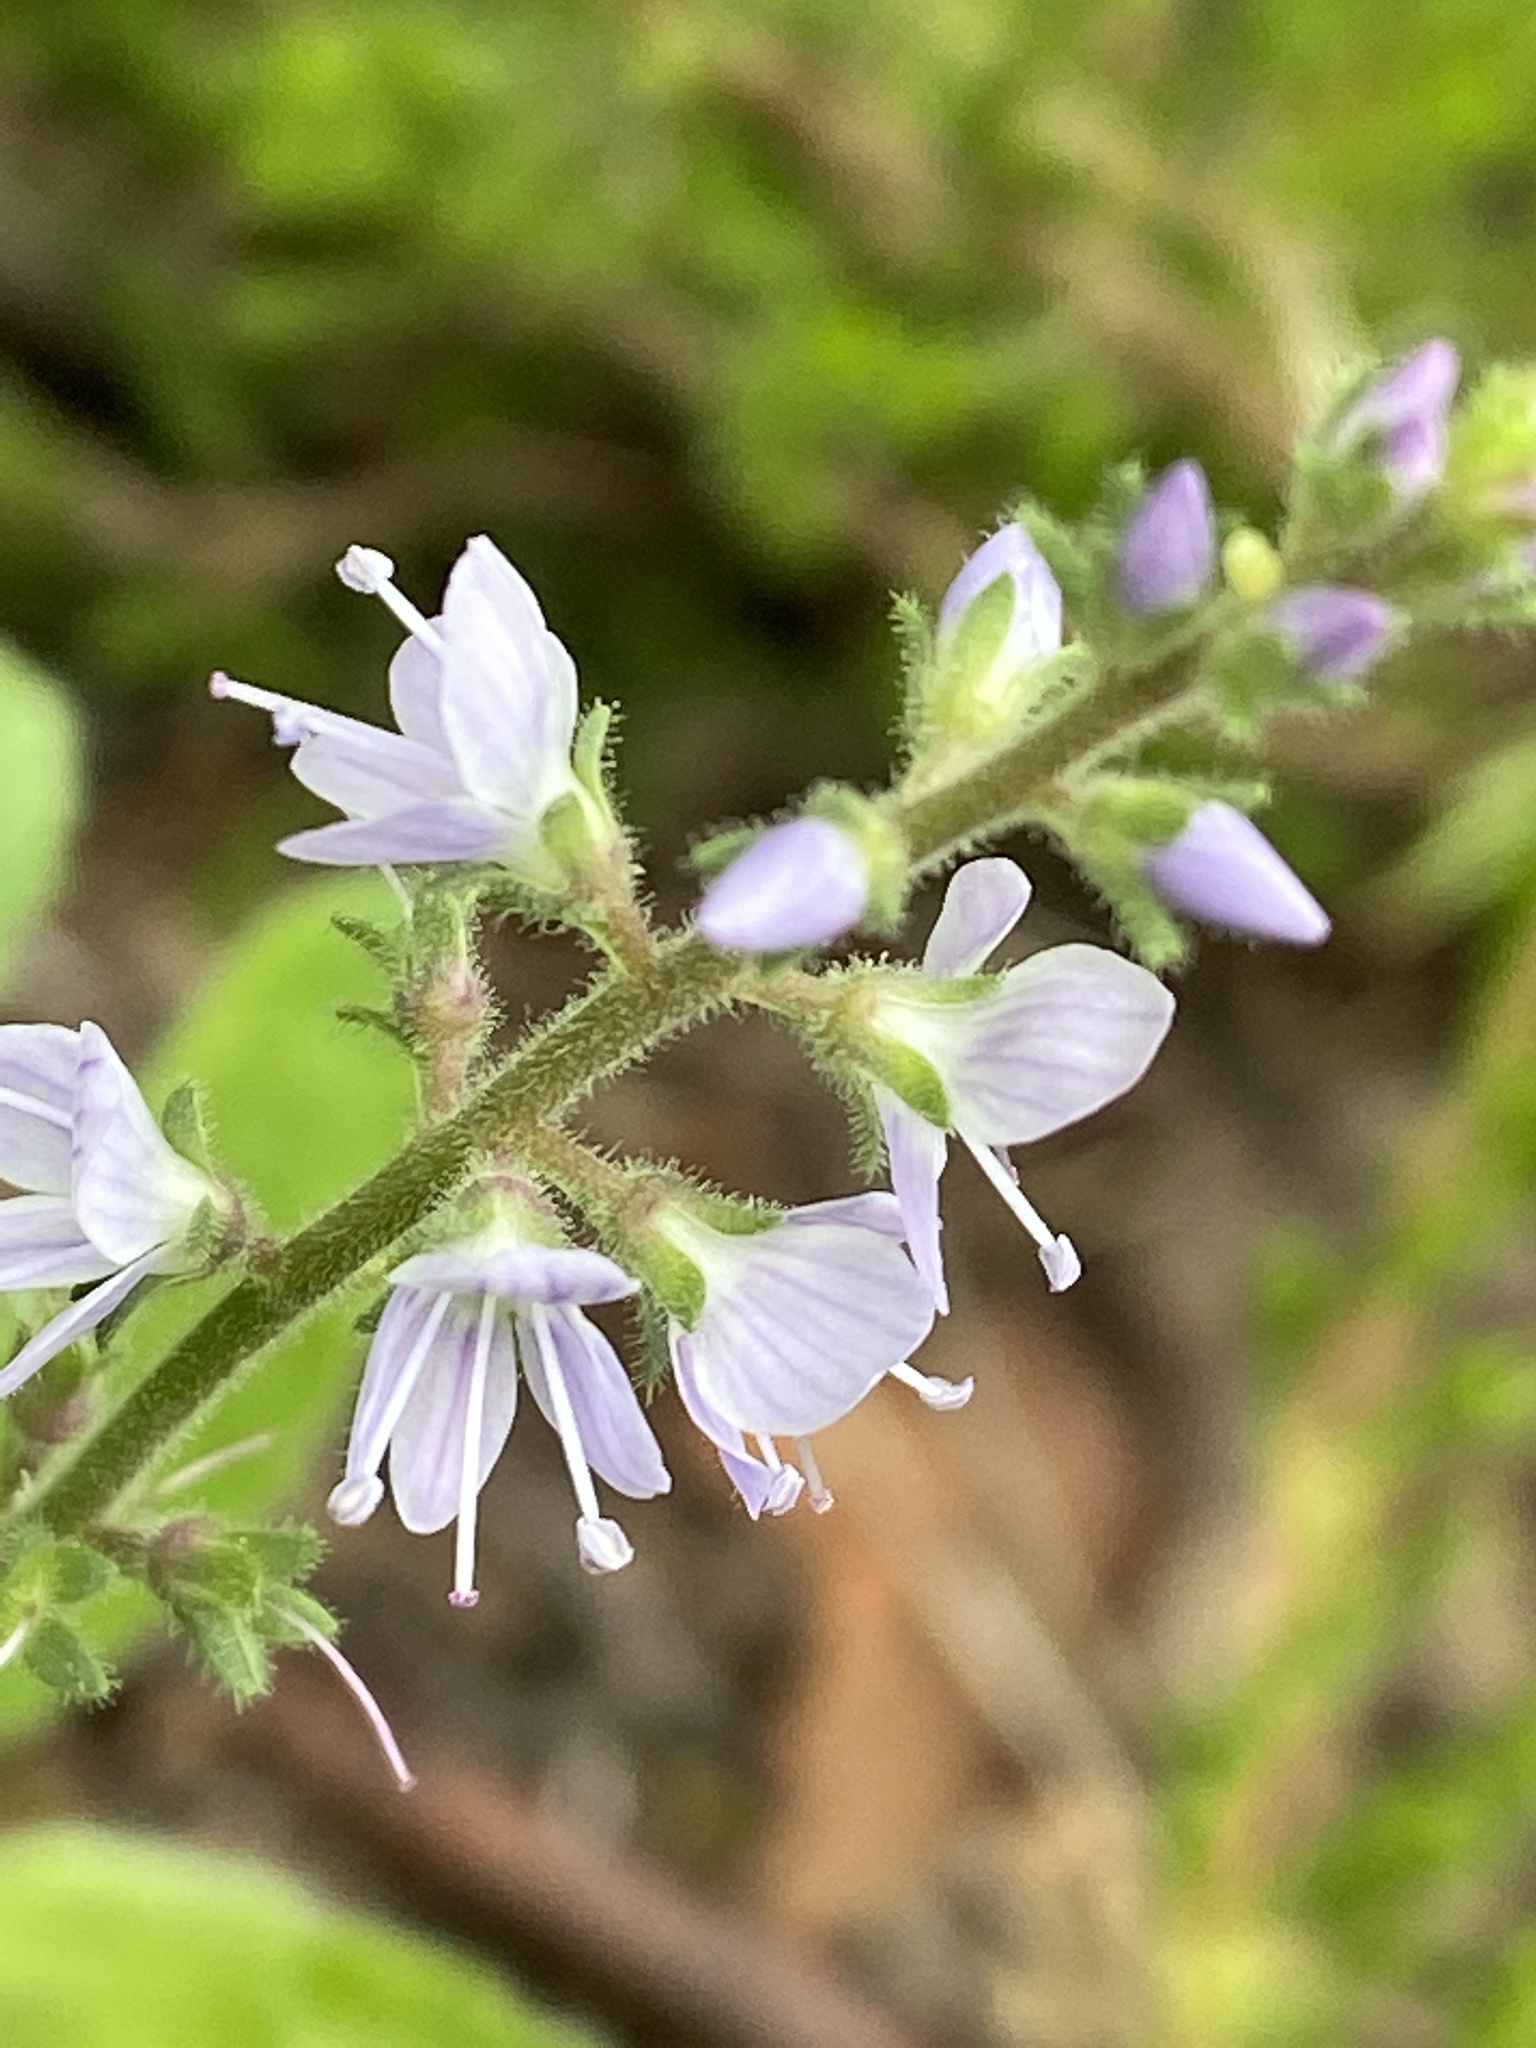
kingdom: Plantae
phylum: Tracheophyta
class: Magnoliopsida
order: Lamiales
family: Plantaginaceae
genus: Veronica
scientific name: Veronica officinalis
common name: Common speedwell
